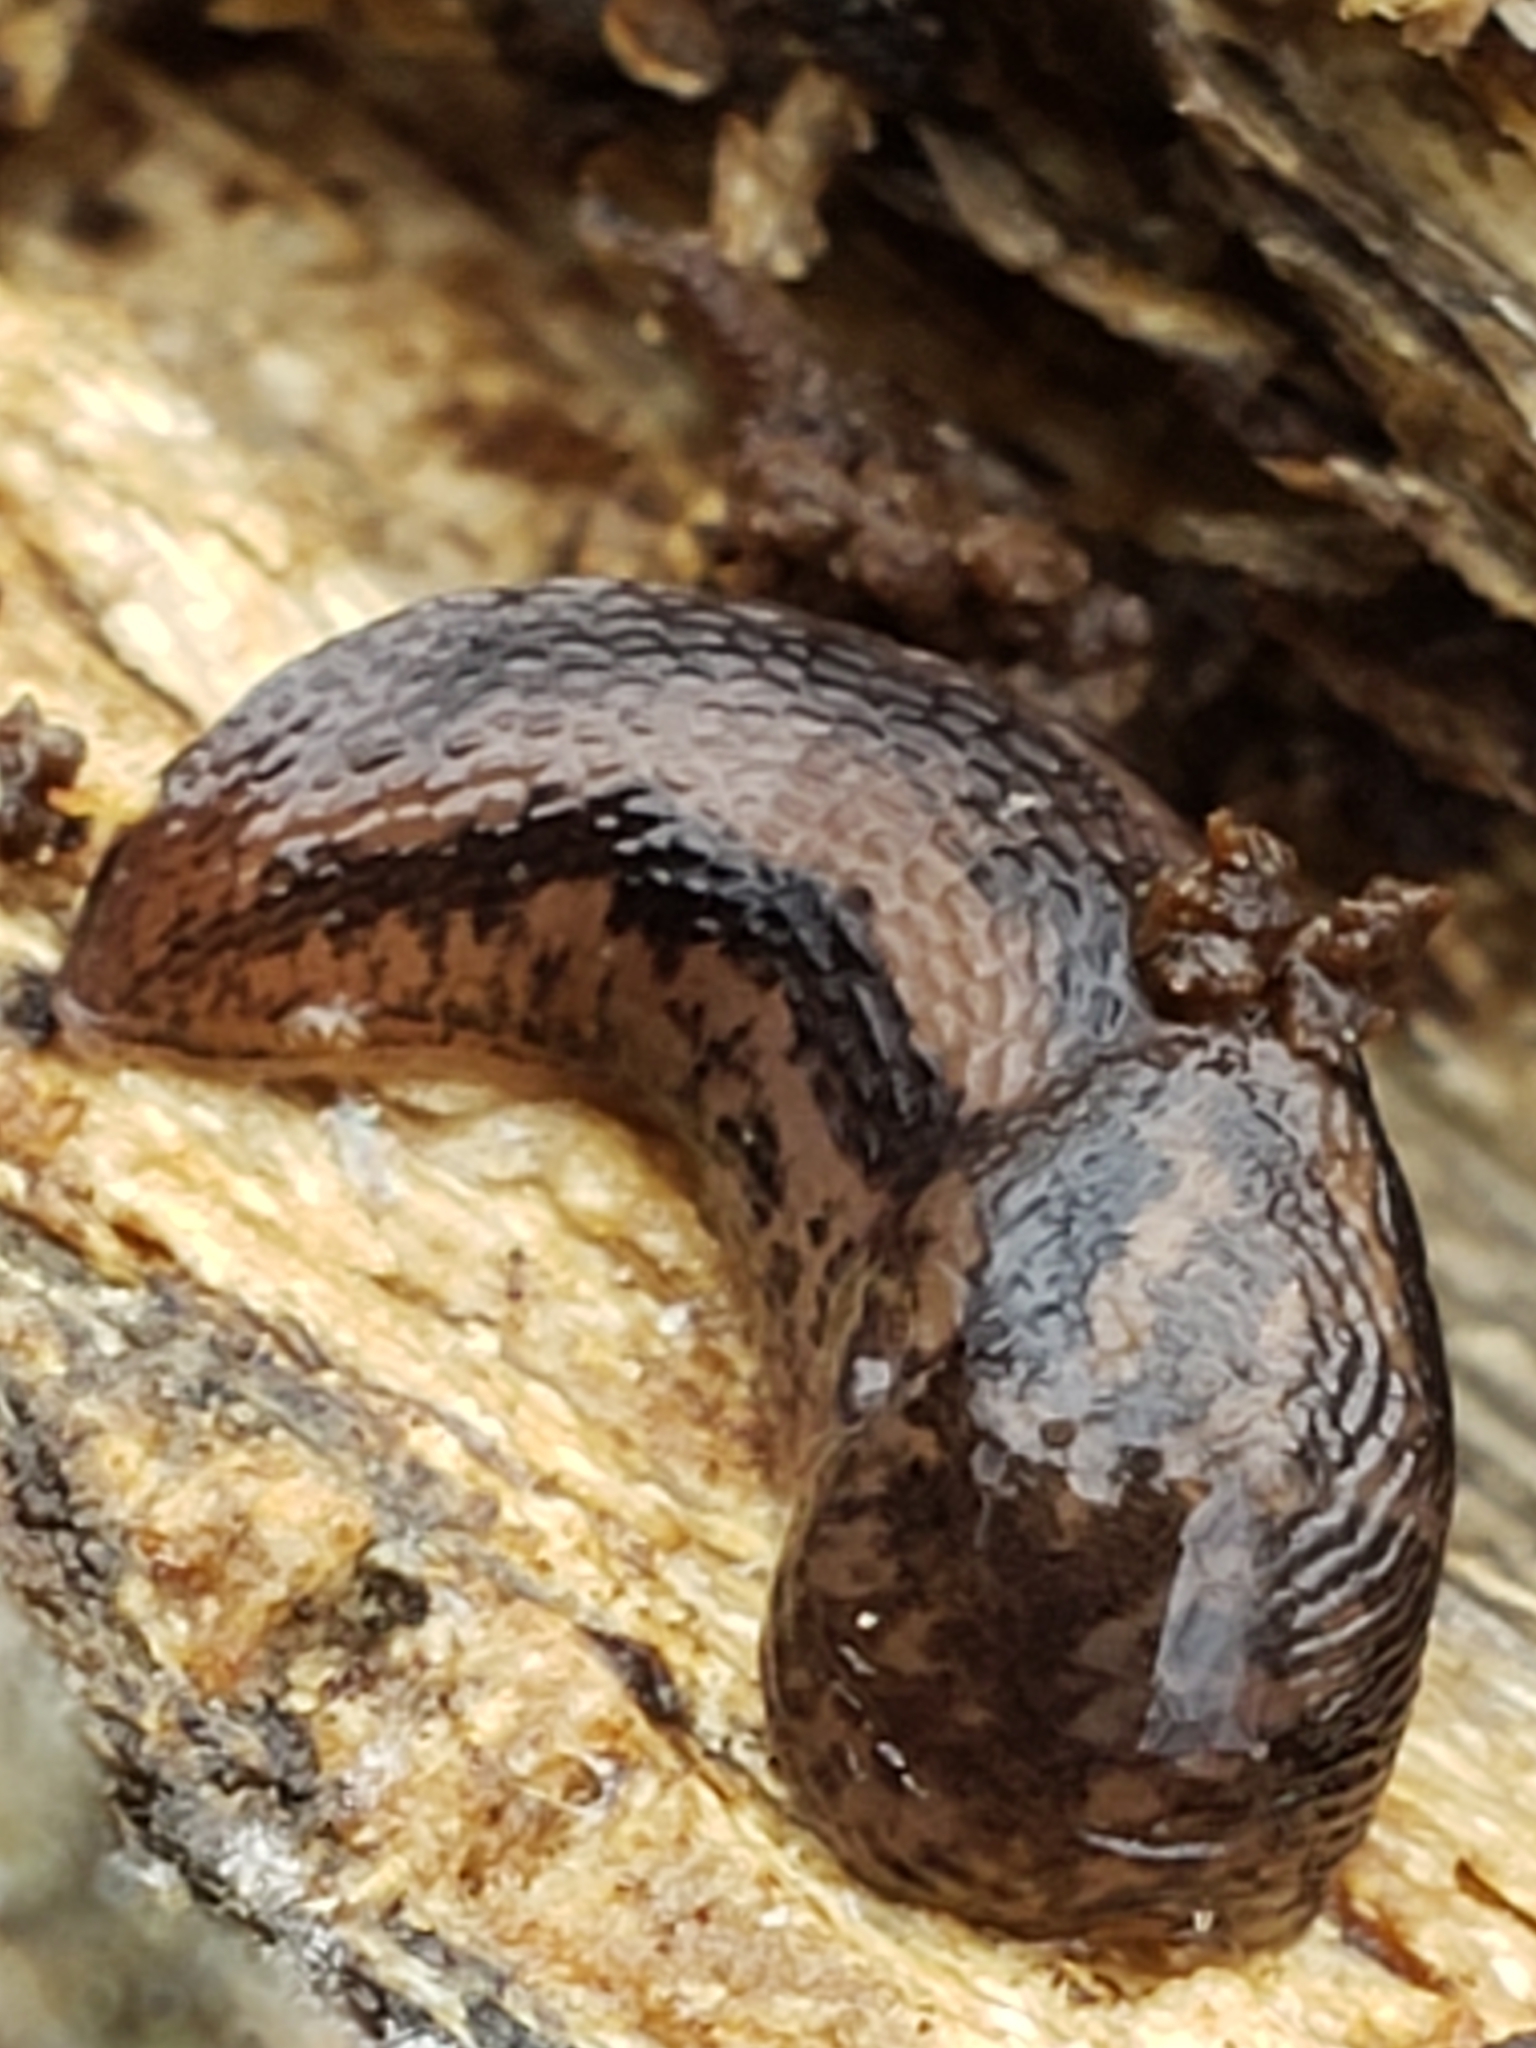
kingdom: Animalia
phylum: Mollusca
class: Gastropoda
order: Stylommatophora
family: Limacidae
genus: Limax
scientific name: Limax maximus
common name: Great grey slug
